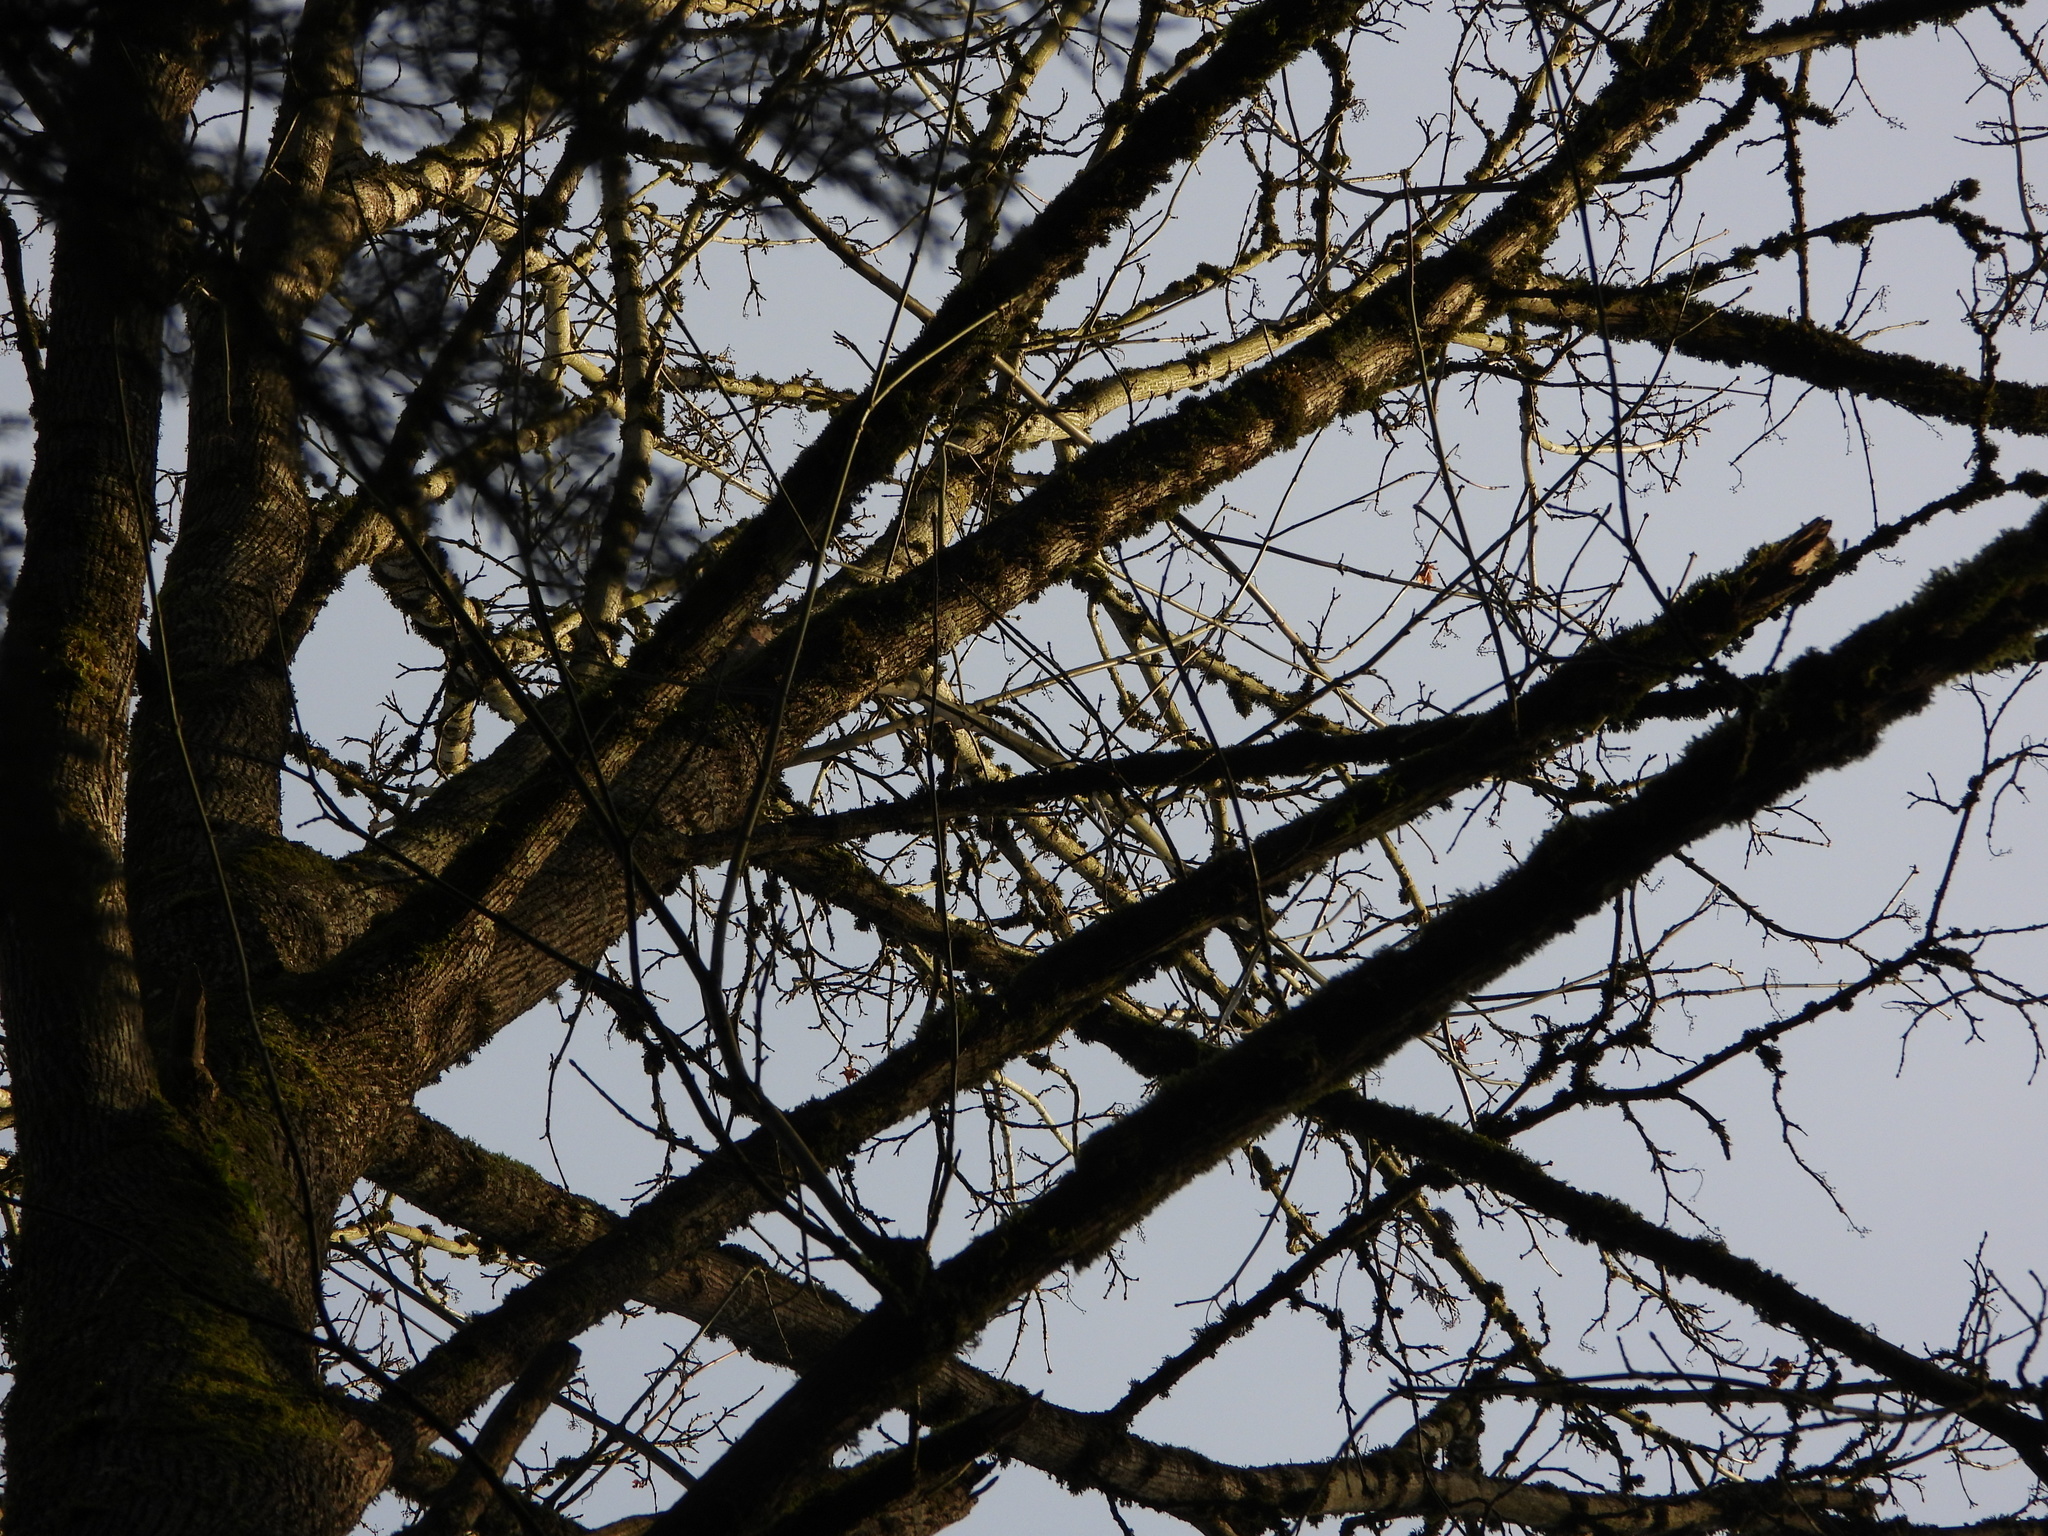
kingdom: Plantae
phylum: Tracheophyta
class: Magnoliopsida
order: Sapindales
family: Sapindaceae
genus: Acer
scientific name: Acer macrophyllum
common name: Oregon maple
